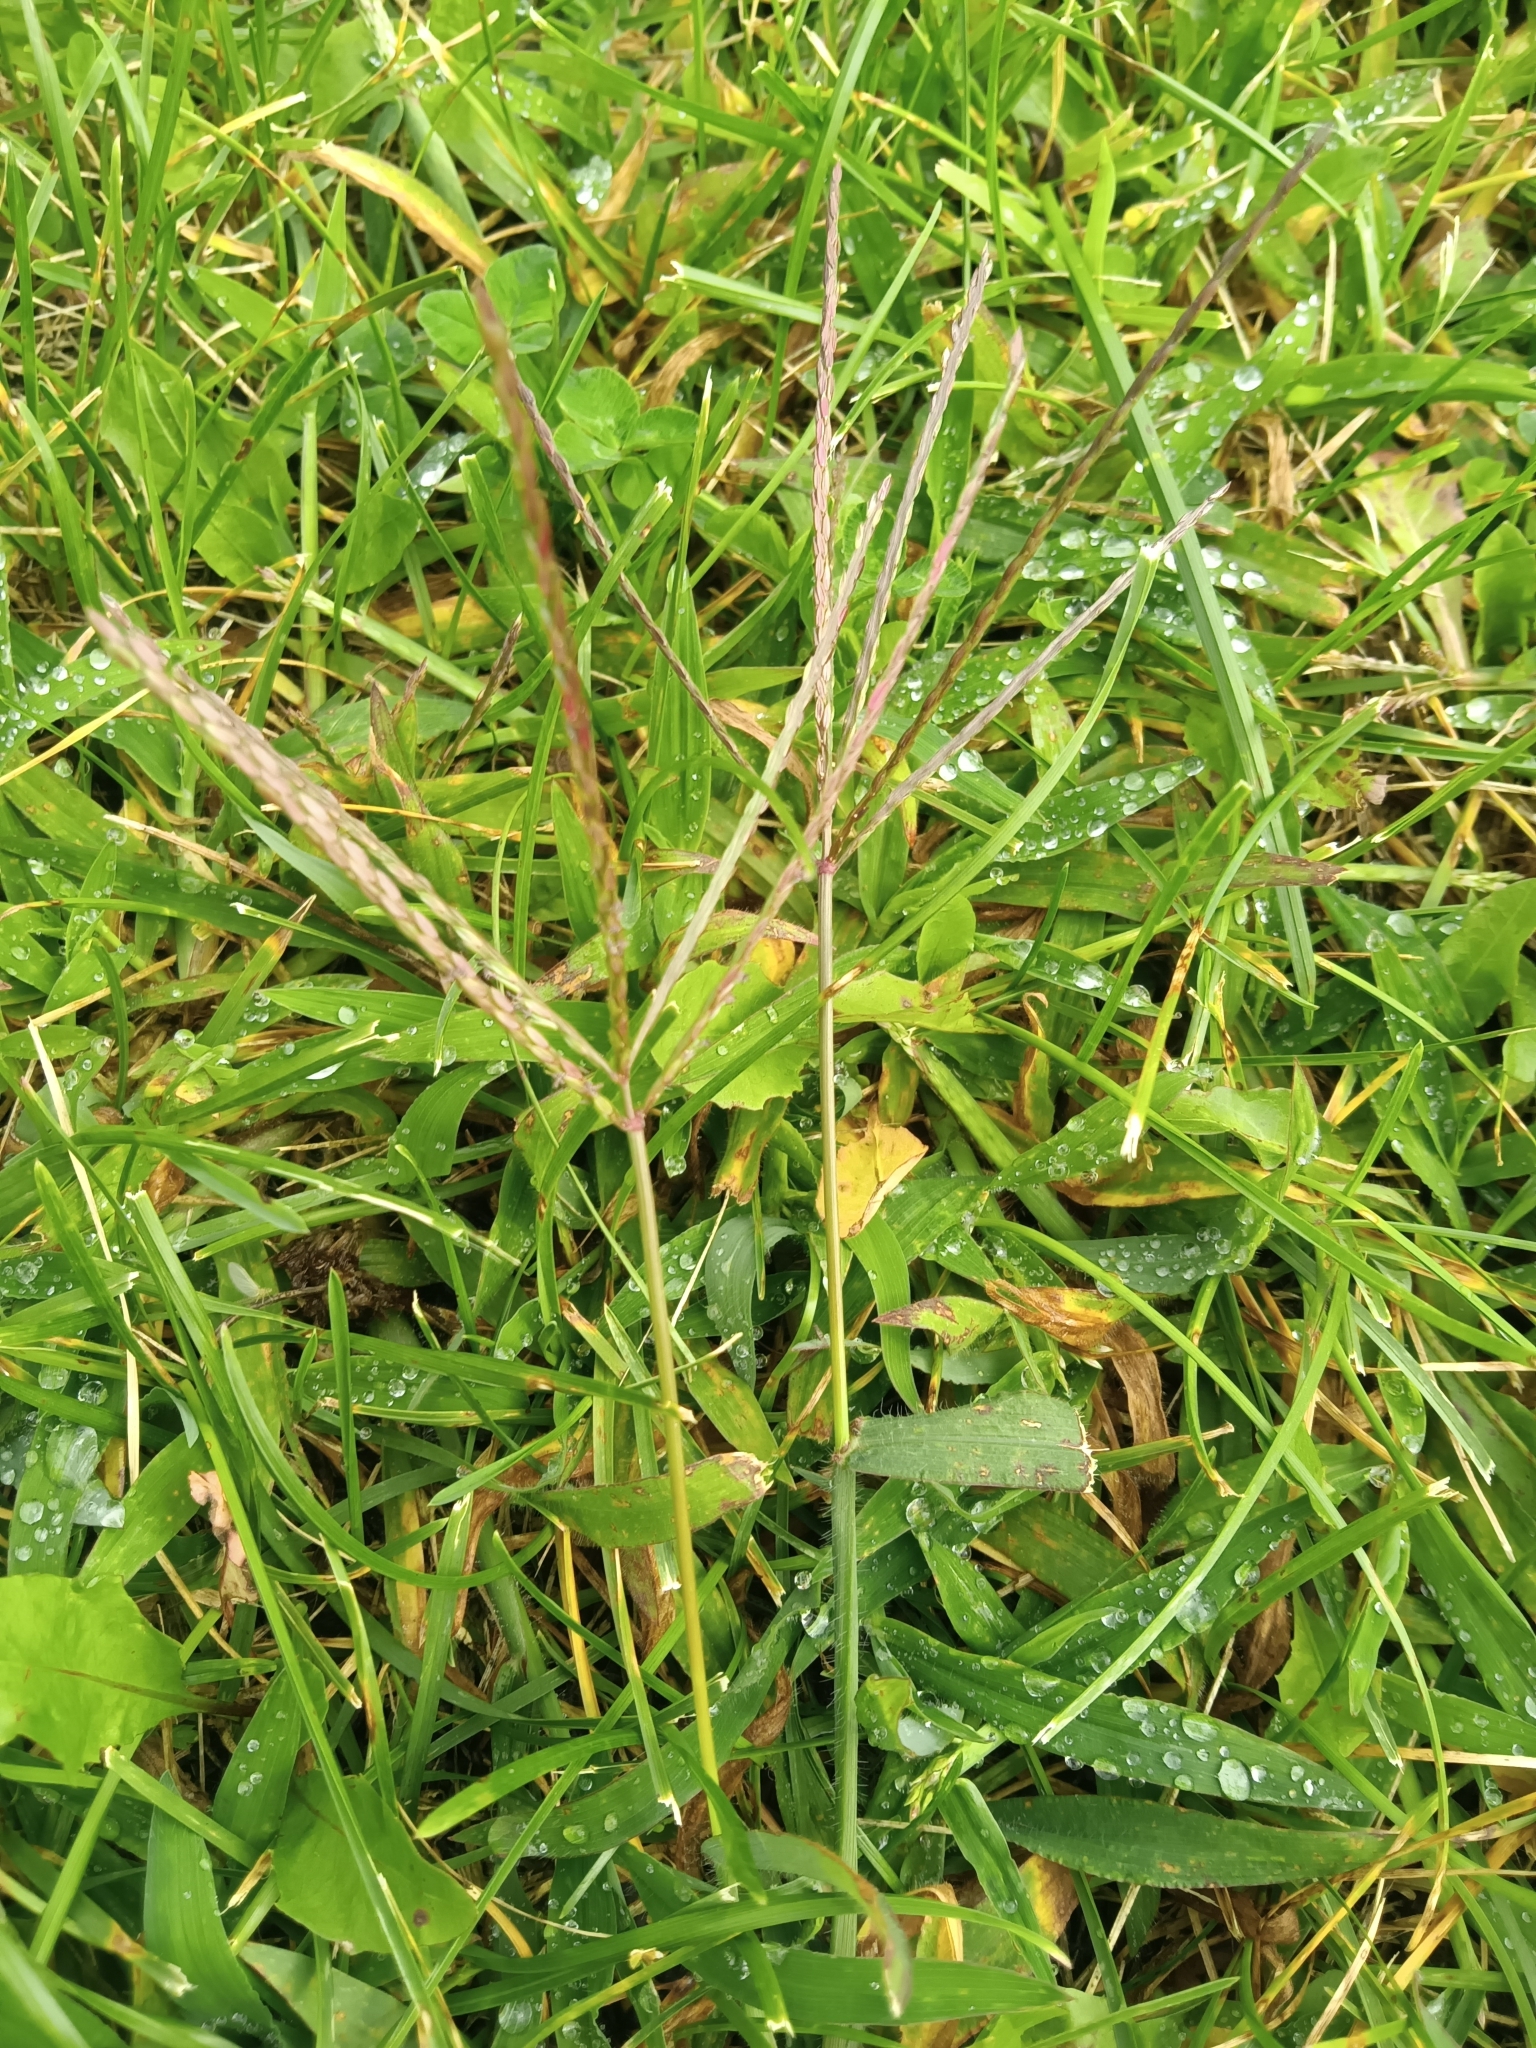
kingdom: Plantae
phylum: Tracheophyta
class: Liliopsida
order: Poales
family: Poaceae
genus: Digitaria
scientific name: Digitaria sanguinalis
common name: Hairy crabgrass
